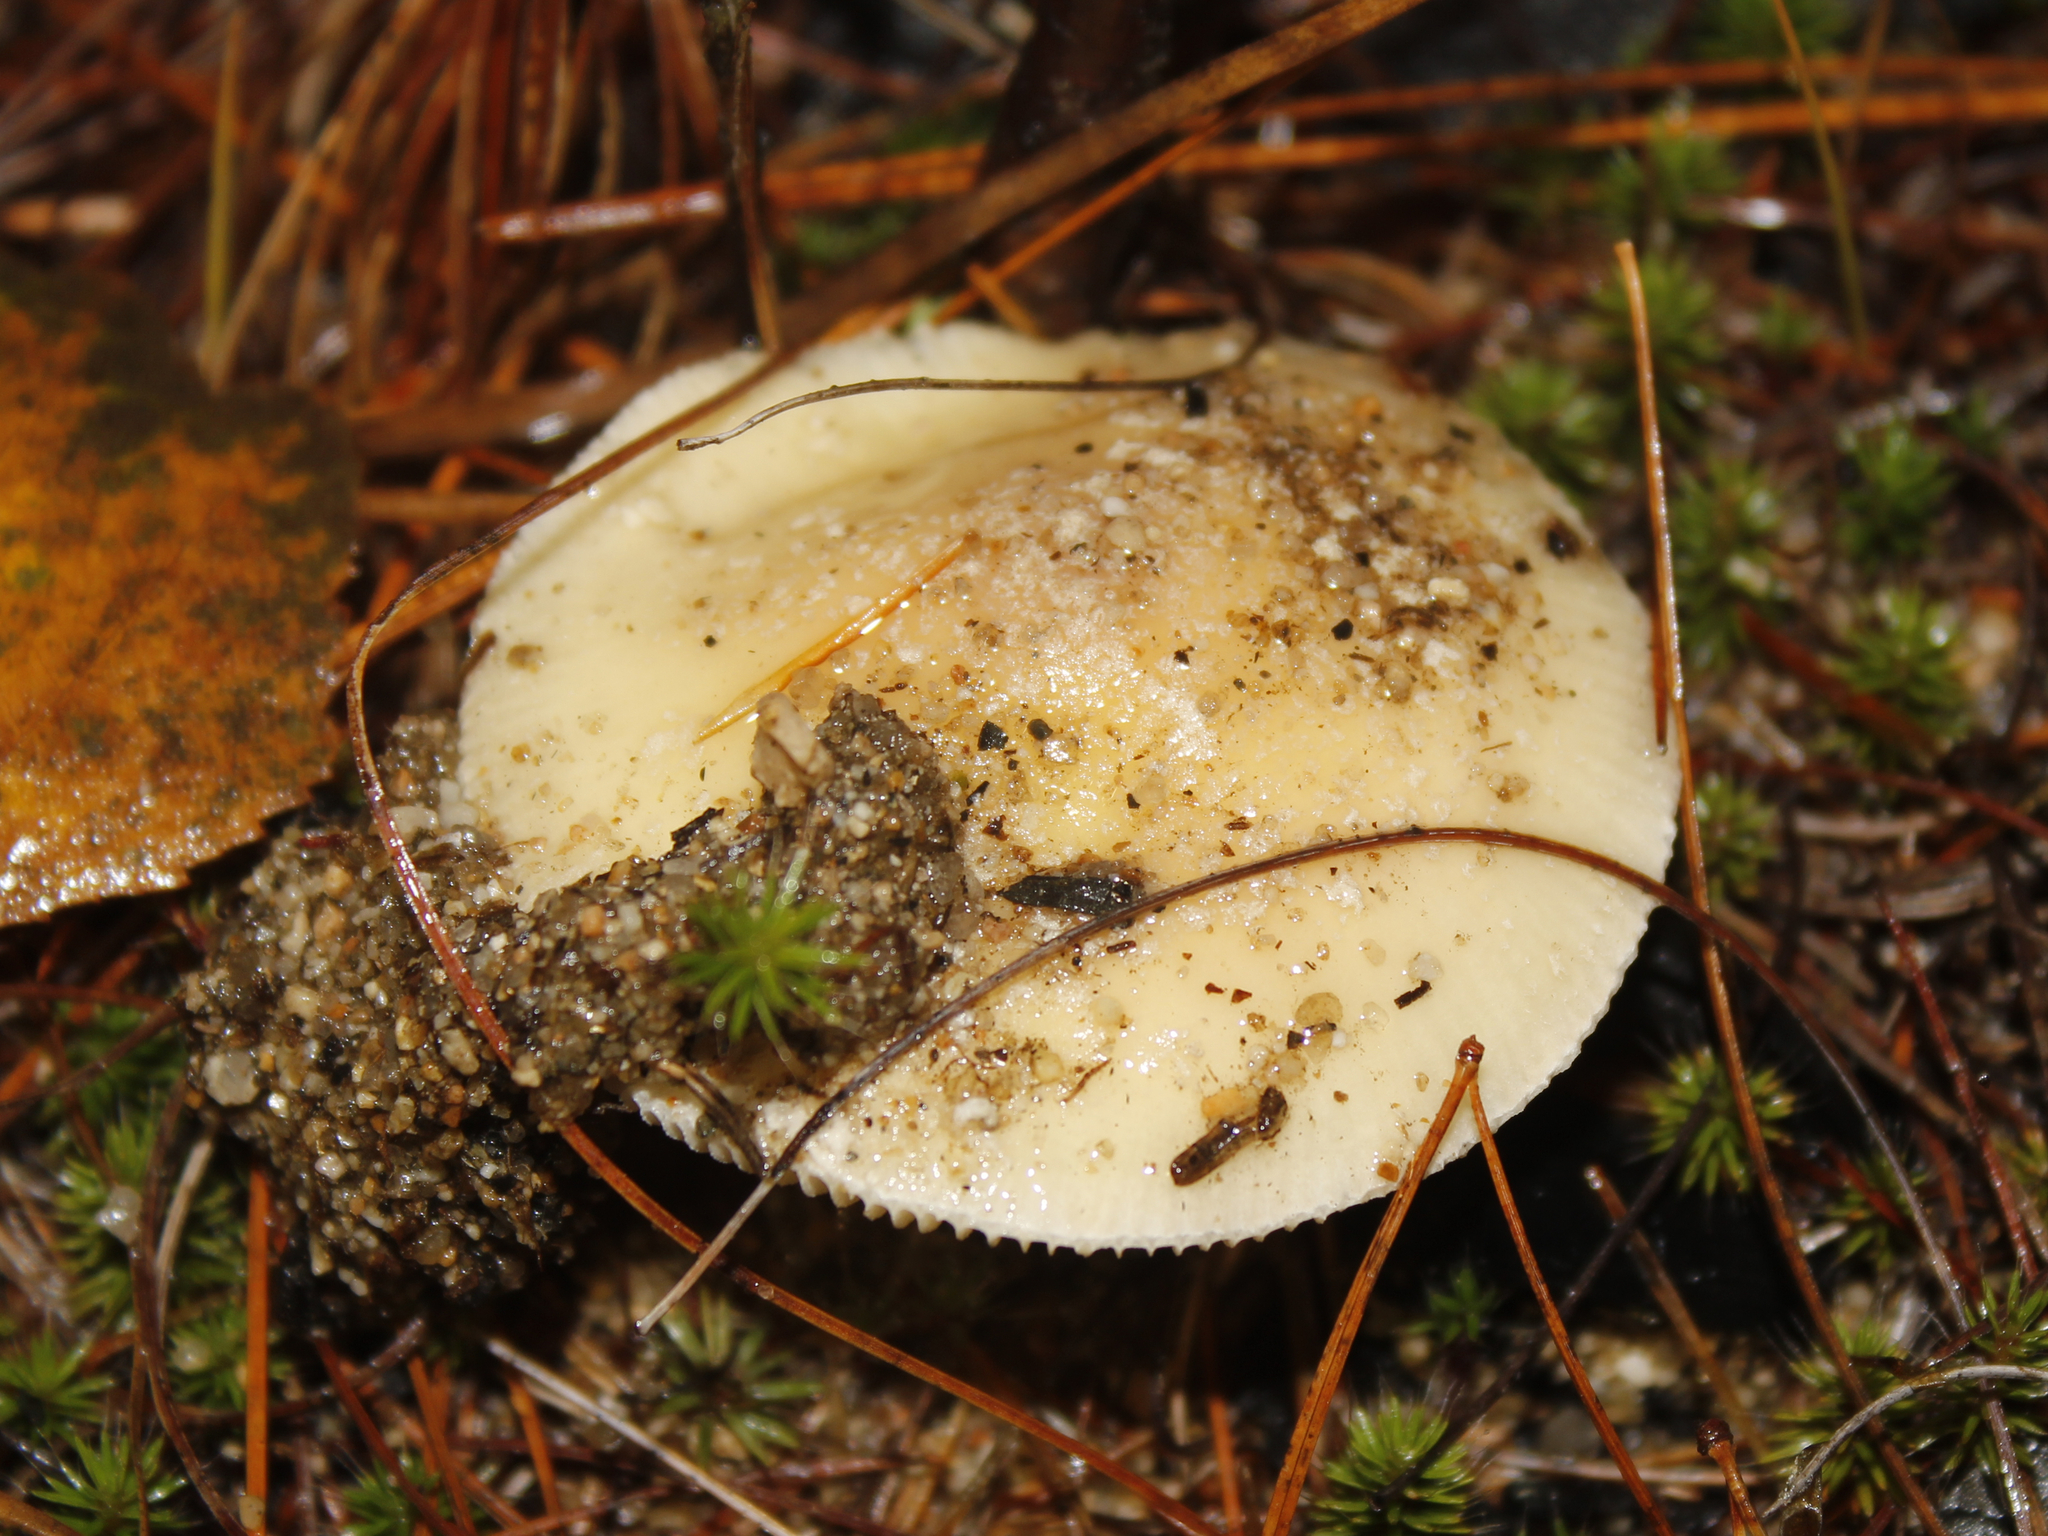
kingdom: Fungi
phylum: Basidiomycota
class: Agaricomycetes
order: Agaricales
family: Amanitaceae
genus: Amanita
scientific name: Amanita crenulata
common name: Poison champagne amanita
